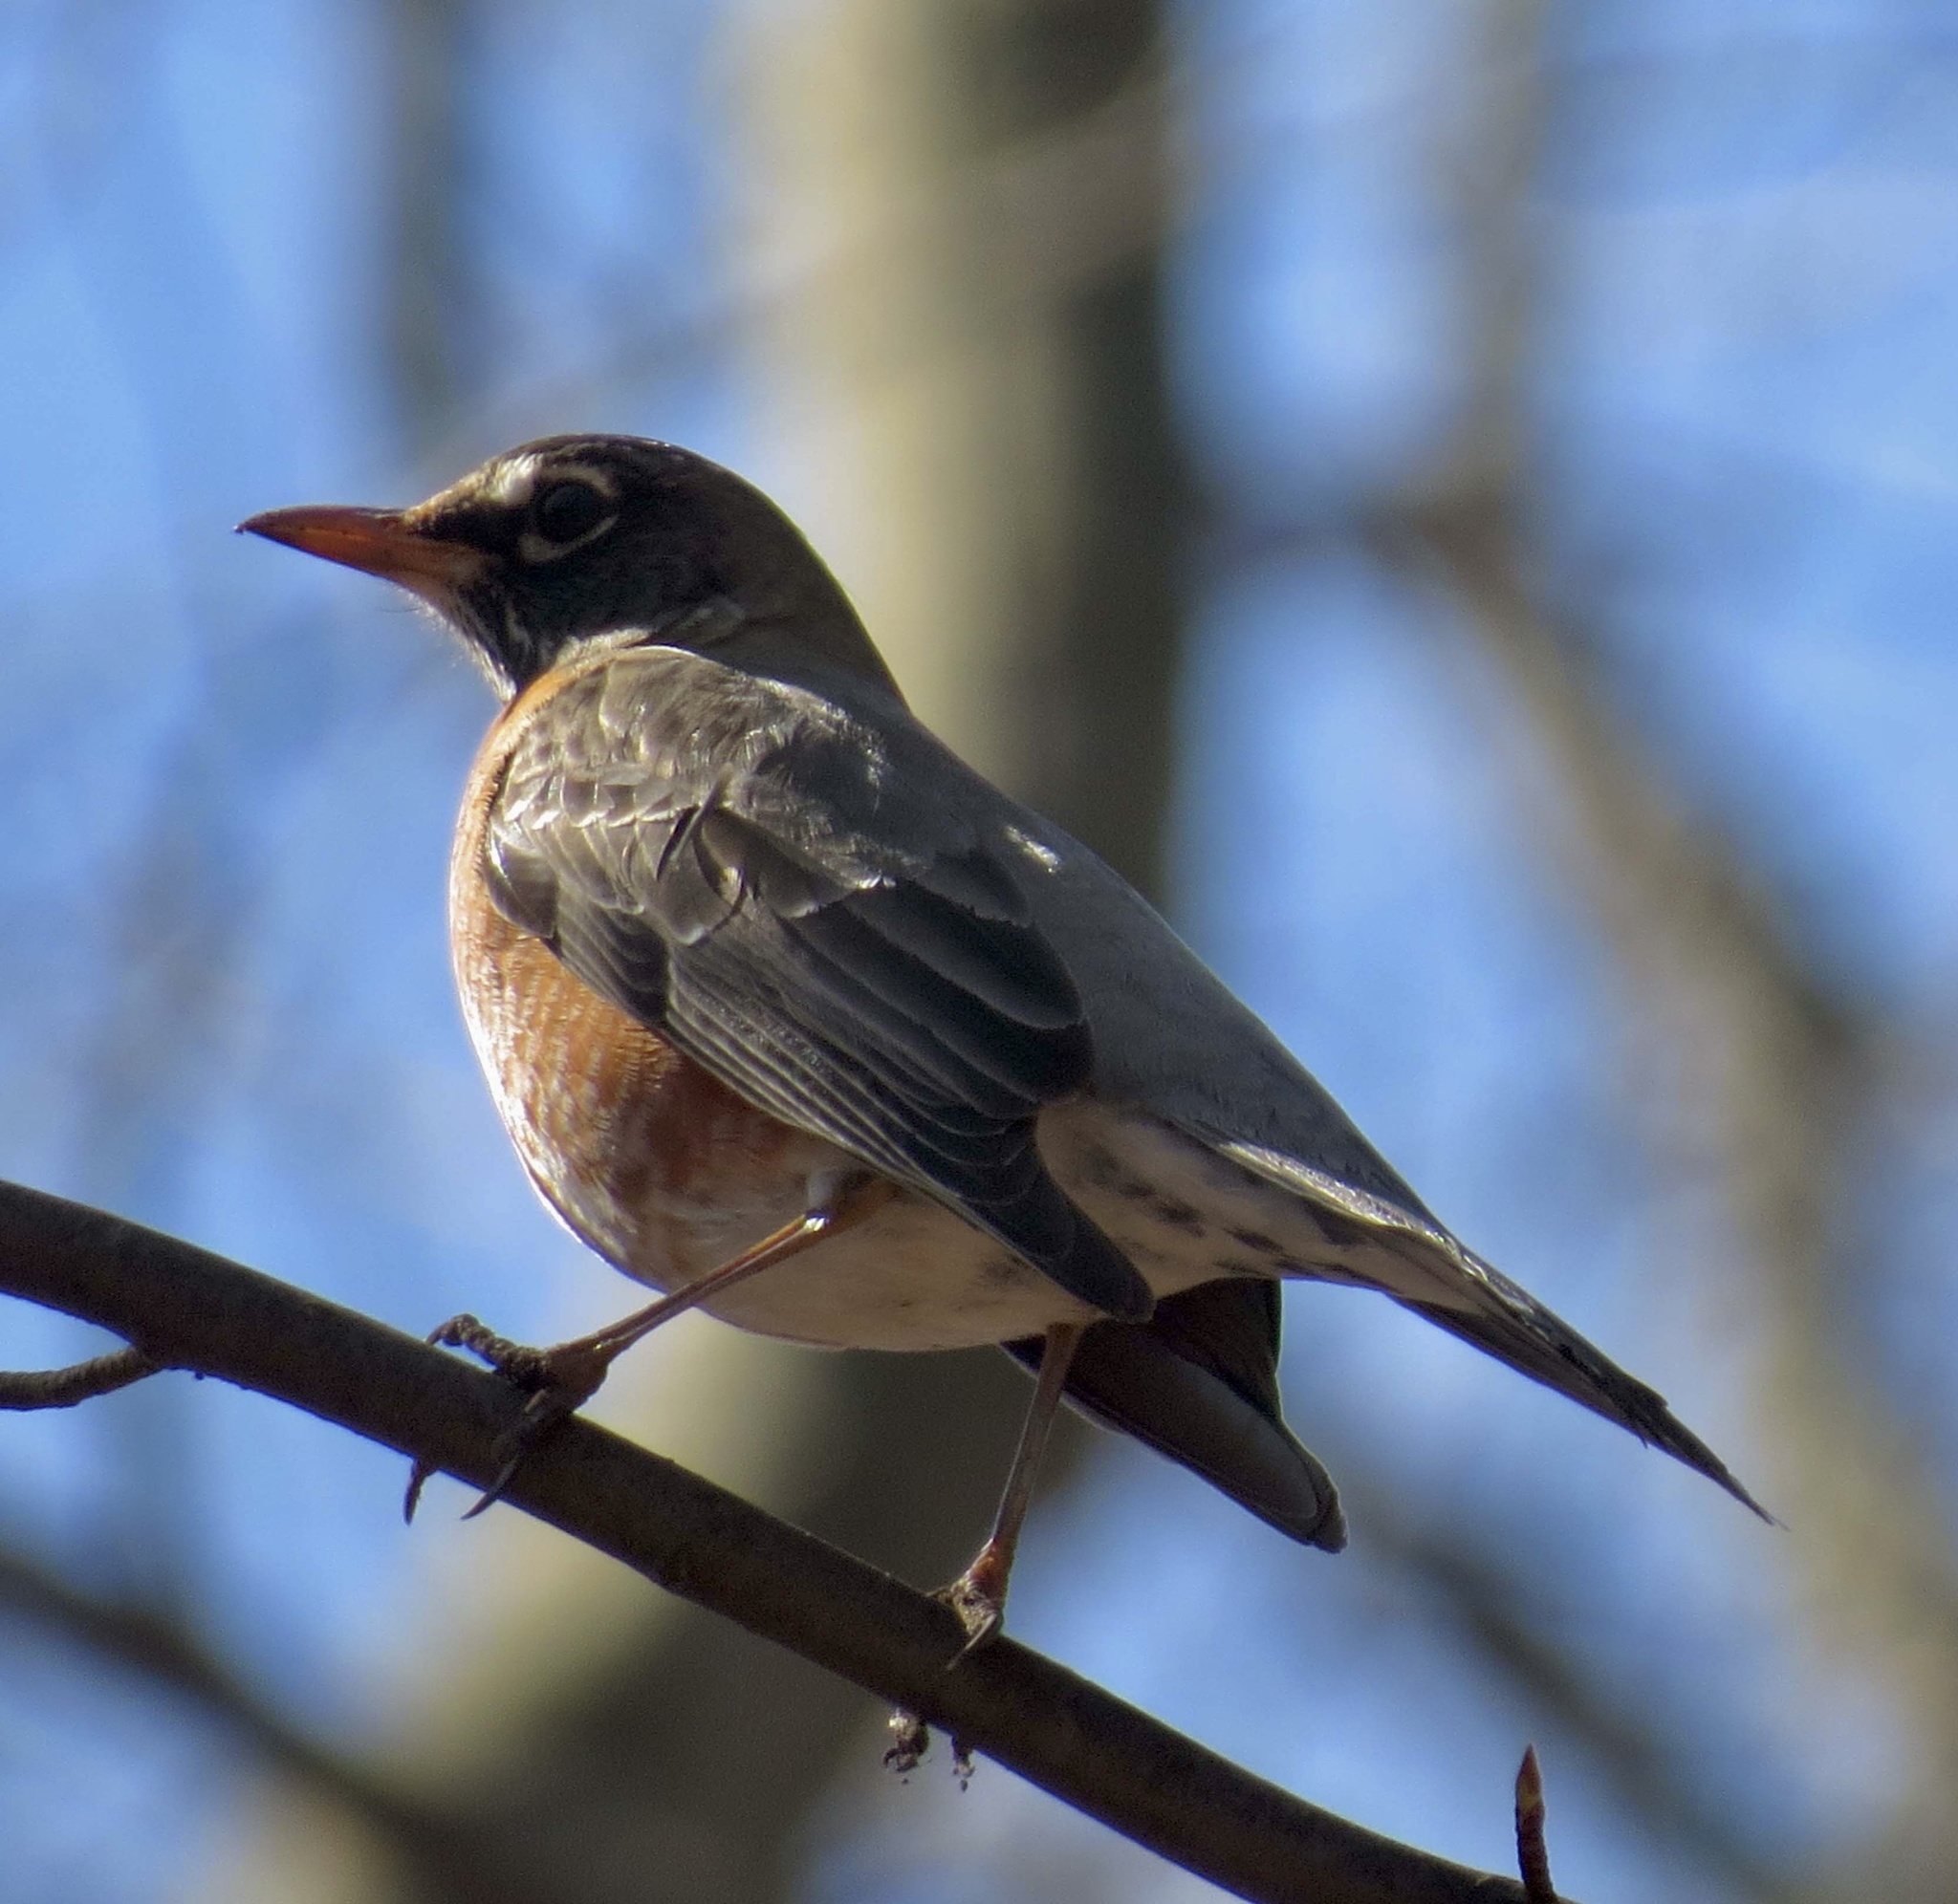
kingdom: Animalia
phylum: Chordata
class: Aves
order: Passeriformes
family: Turdidae
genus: Turdus
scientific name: Turdus migratorius
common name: American robin
